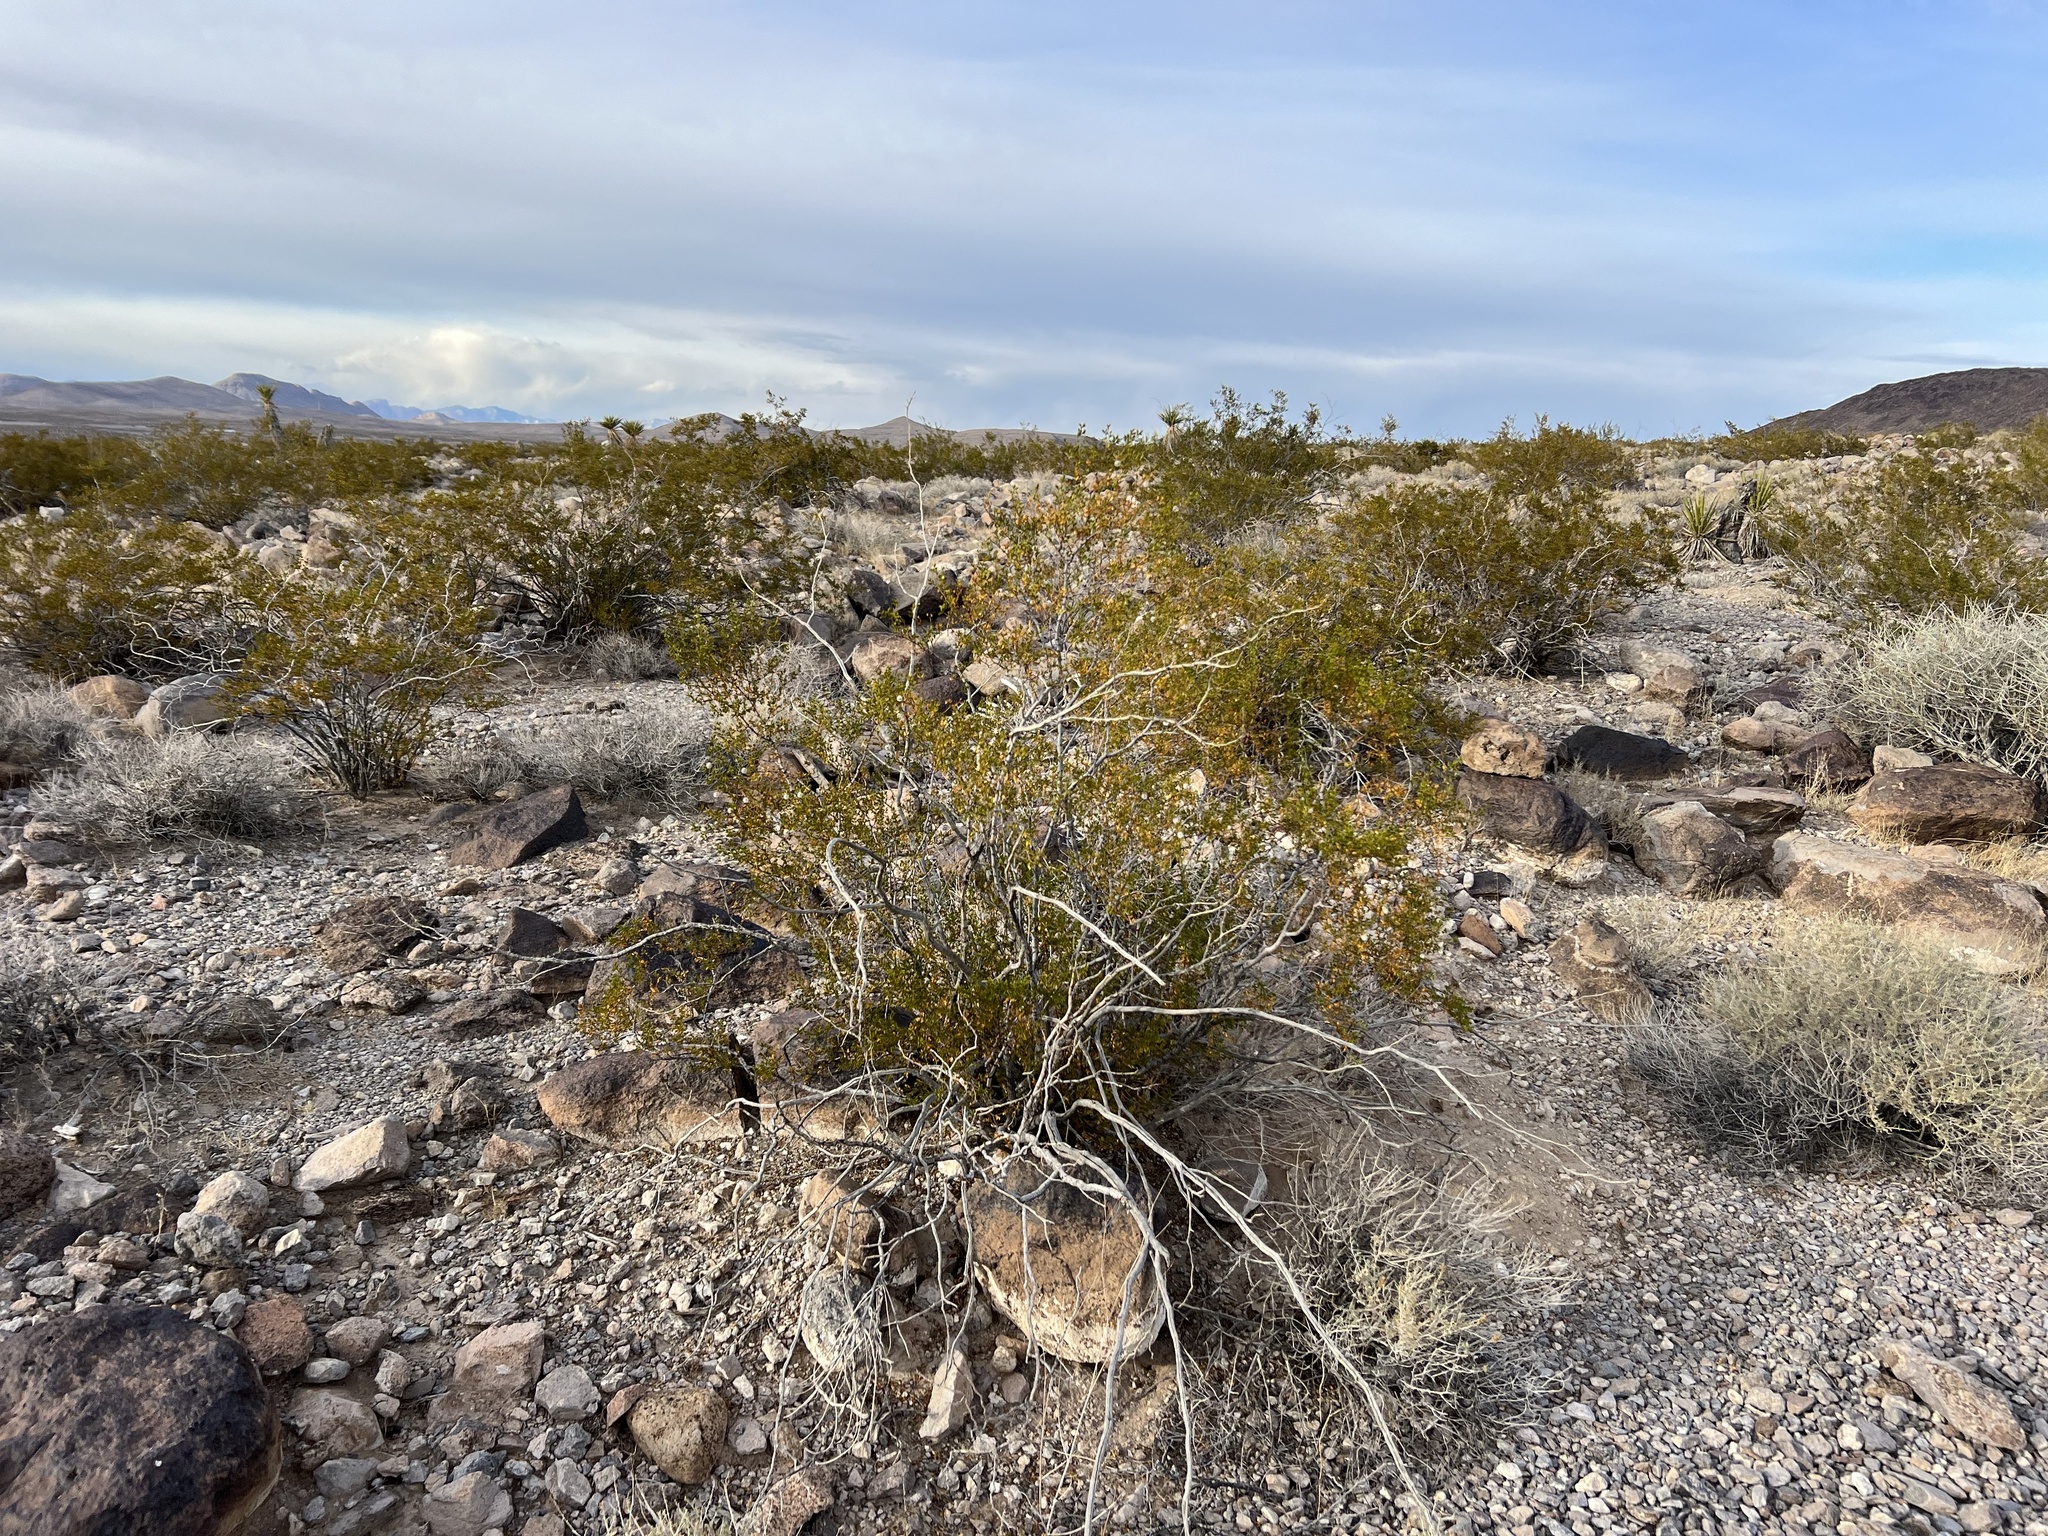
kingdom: Plantae
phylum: Tracheophyta
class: Magnoliopsida
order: Zygophyllales
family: Zygophyllaceae
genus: Larrea
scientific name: Larrea tridentata
